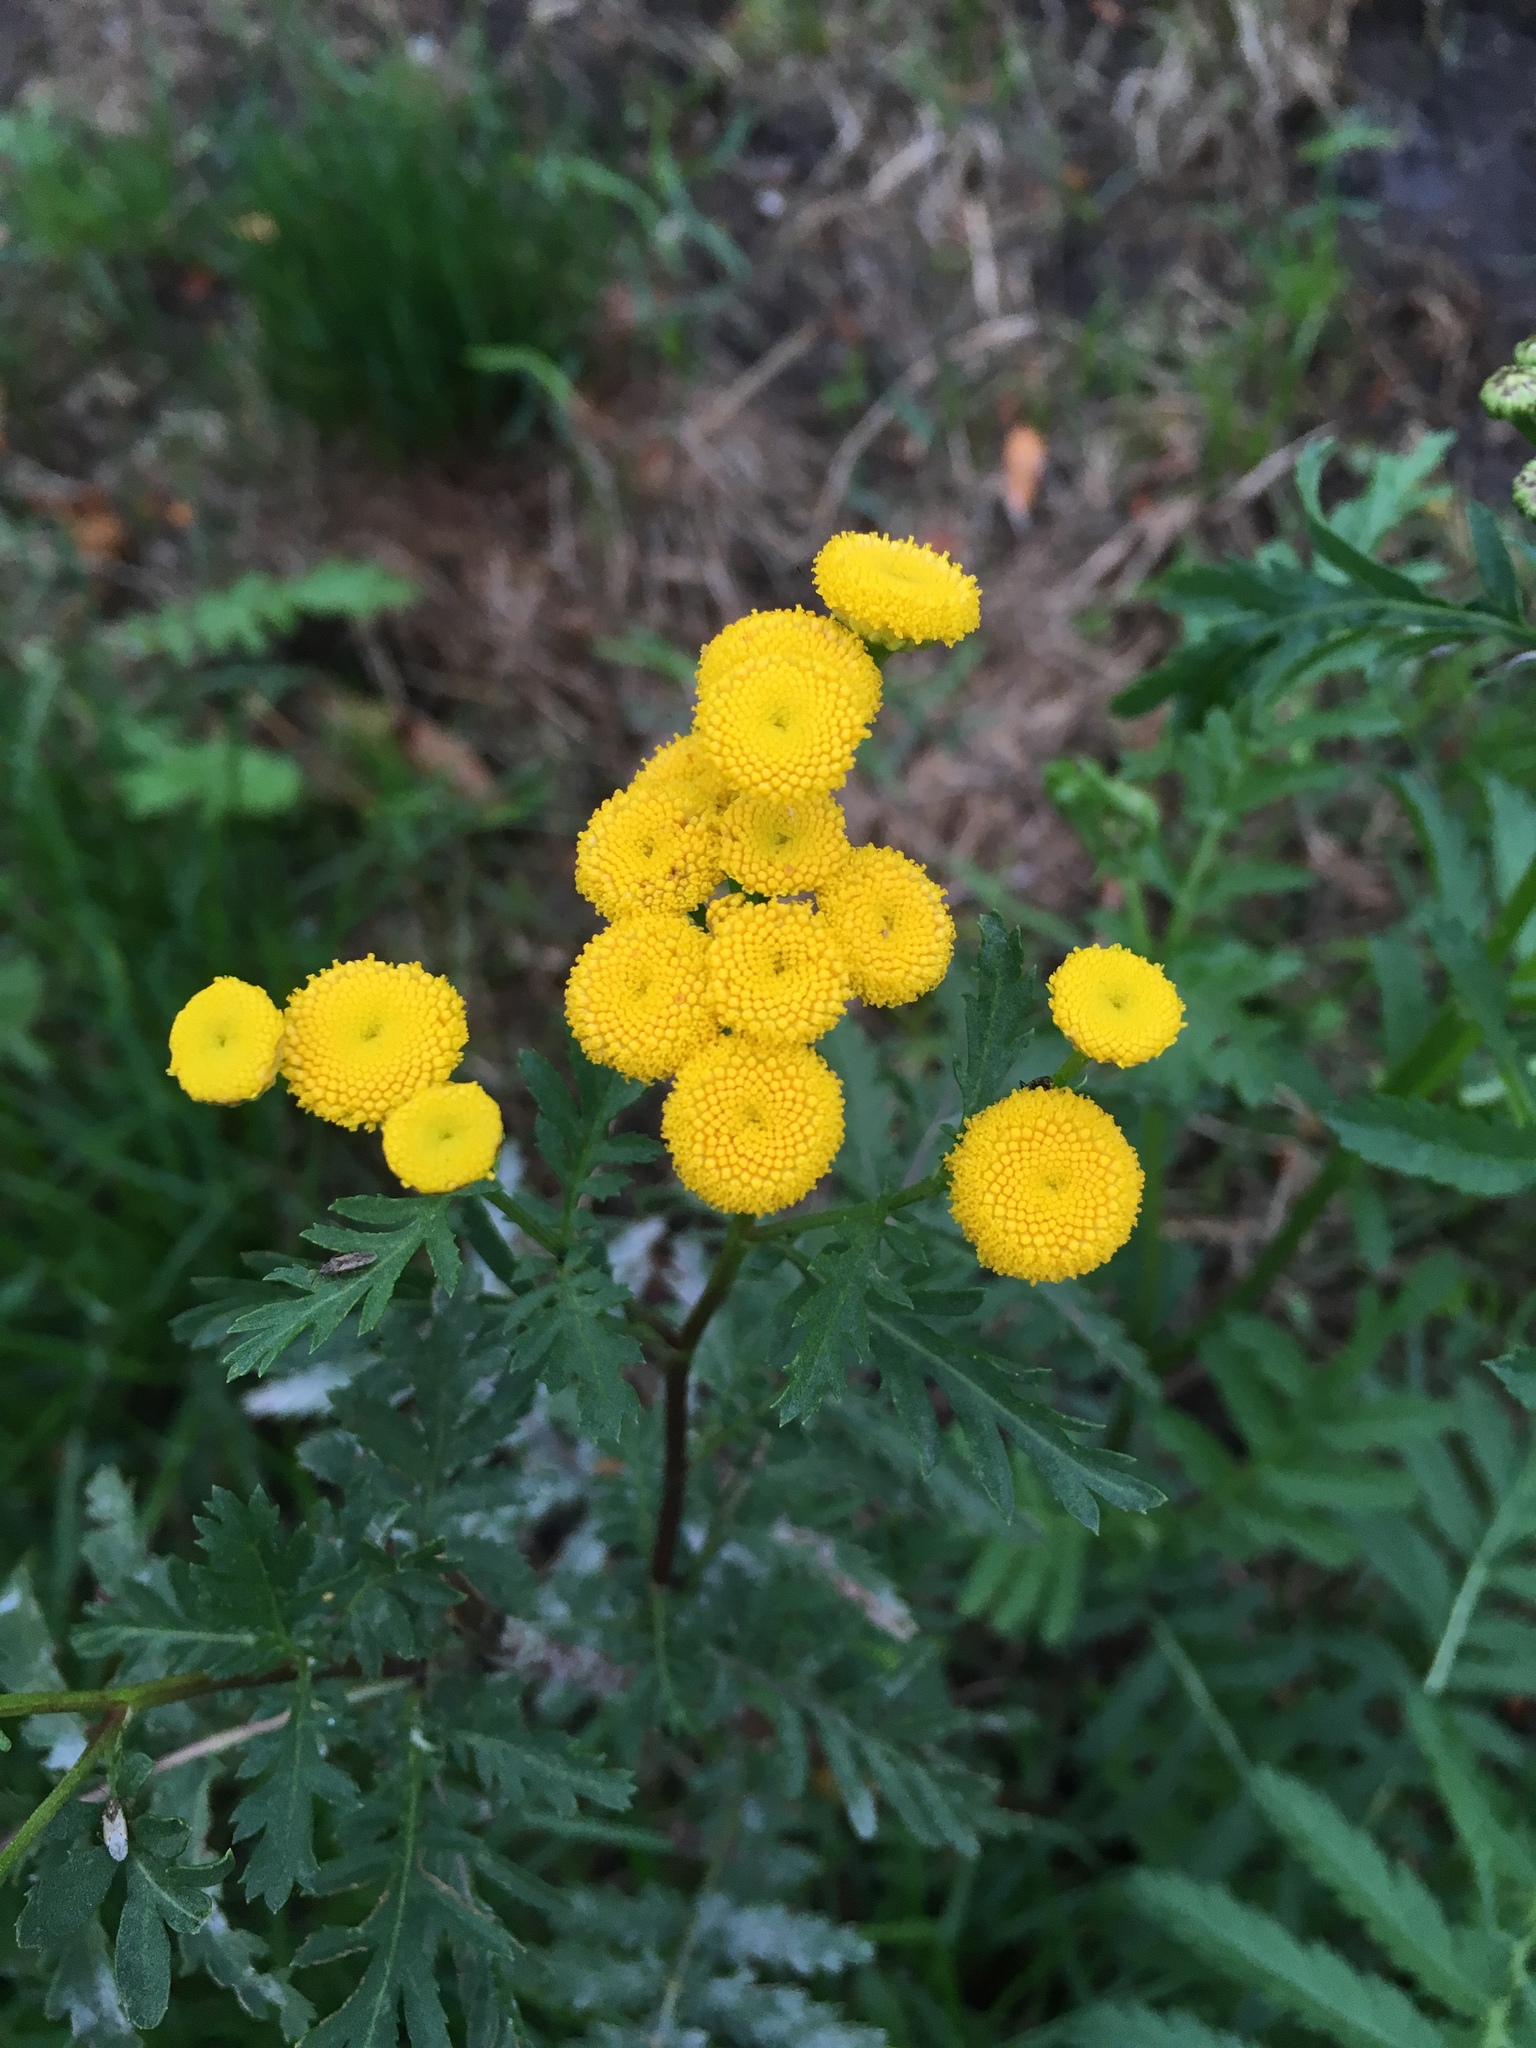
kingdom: Plantae
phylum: Tracheophyta
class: Magnoliopsida
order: Asterales
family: Asteraceae
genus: Tanacetum
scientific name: Tanacetum vulgare
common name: Common tansy
